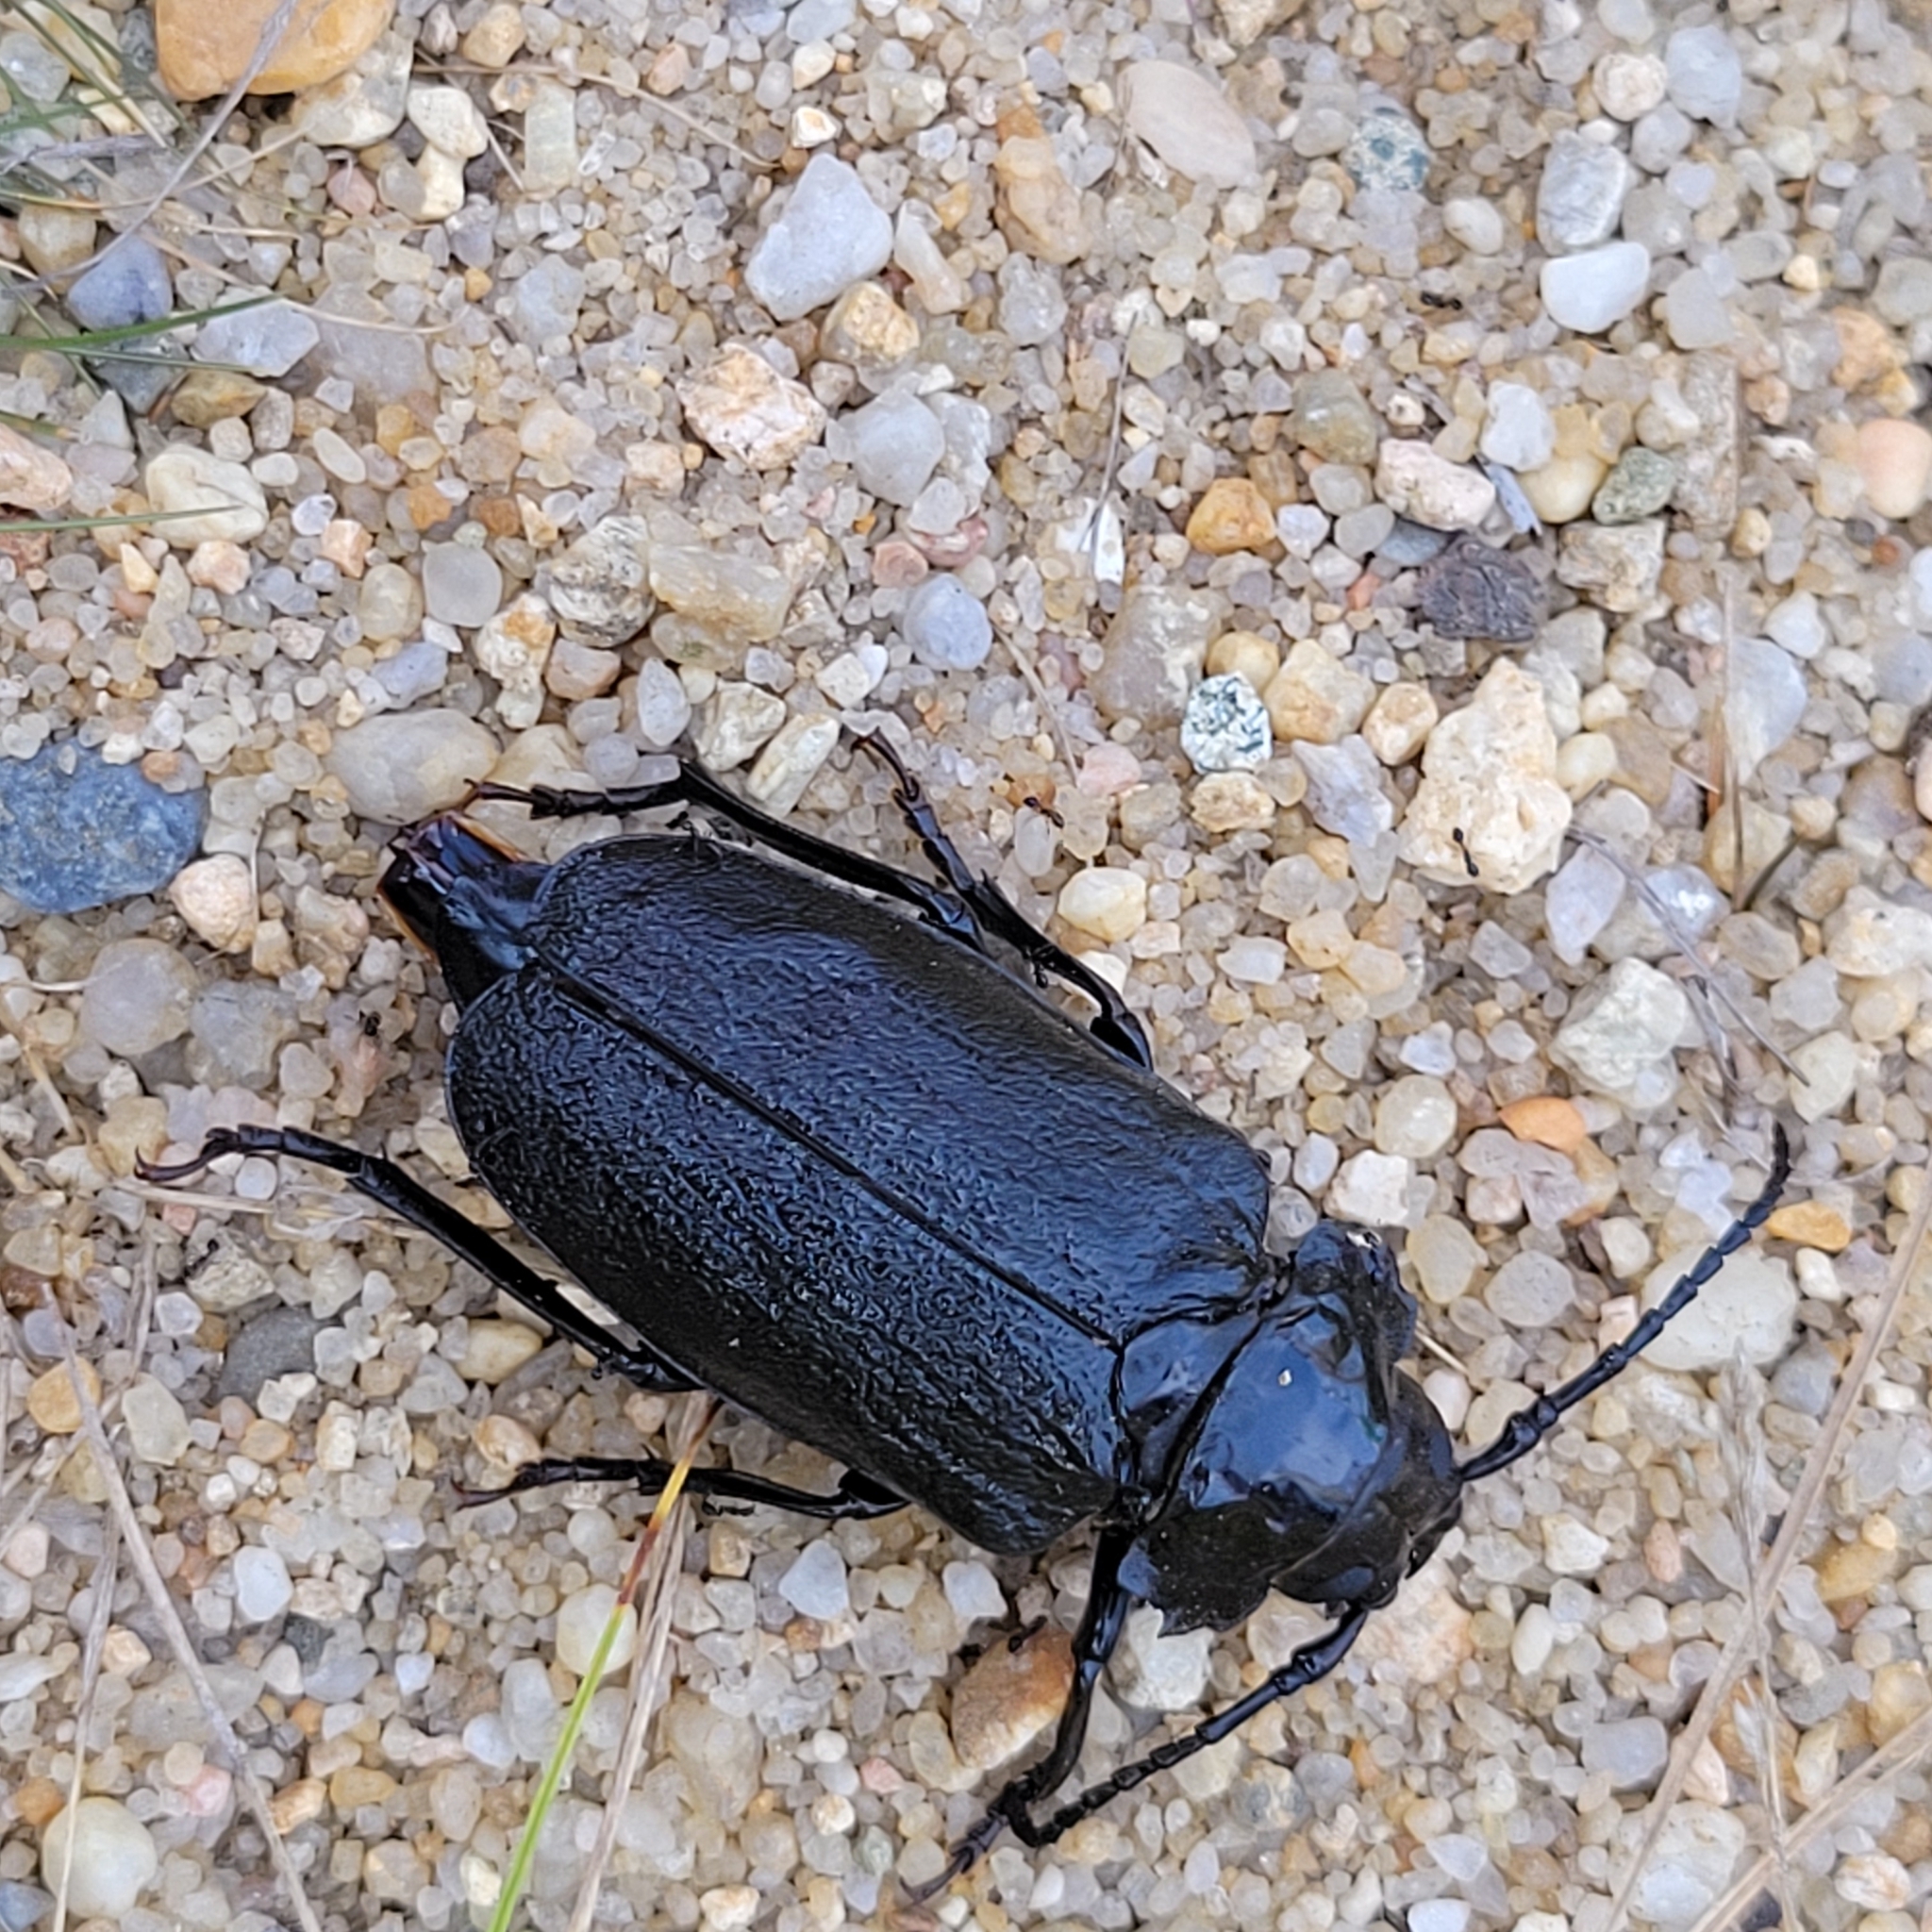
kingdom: Animalia
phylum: Arthropoda
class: Insecta
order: Coleoptera
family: Cerambycidae
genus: Prionus
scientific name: Prionus laticollis
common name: Broad necked prionus
